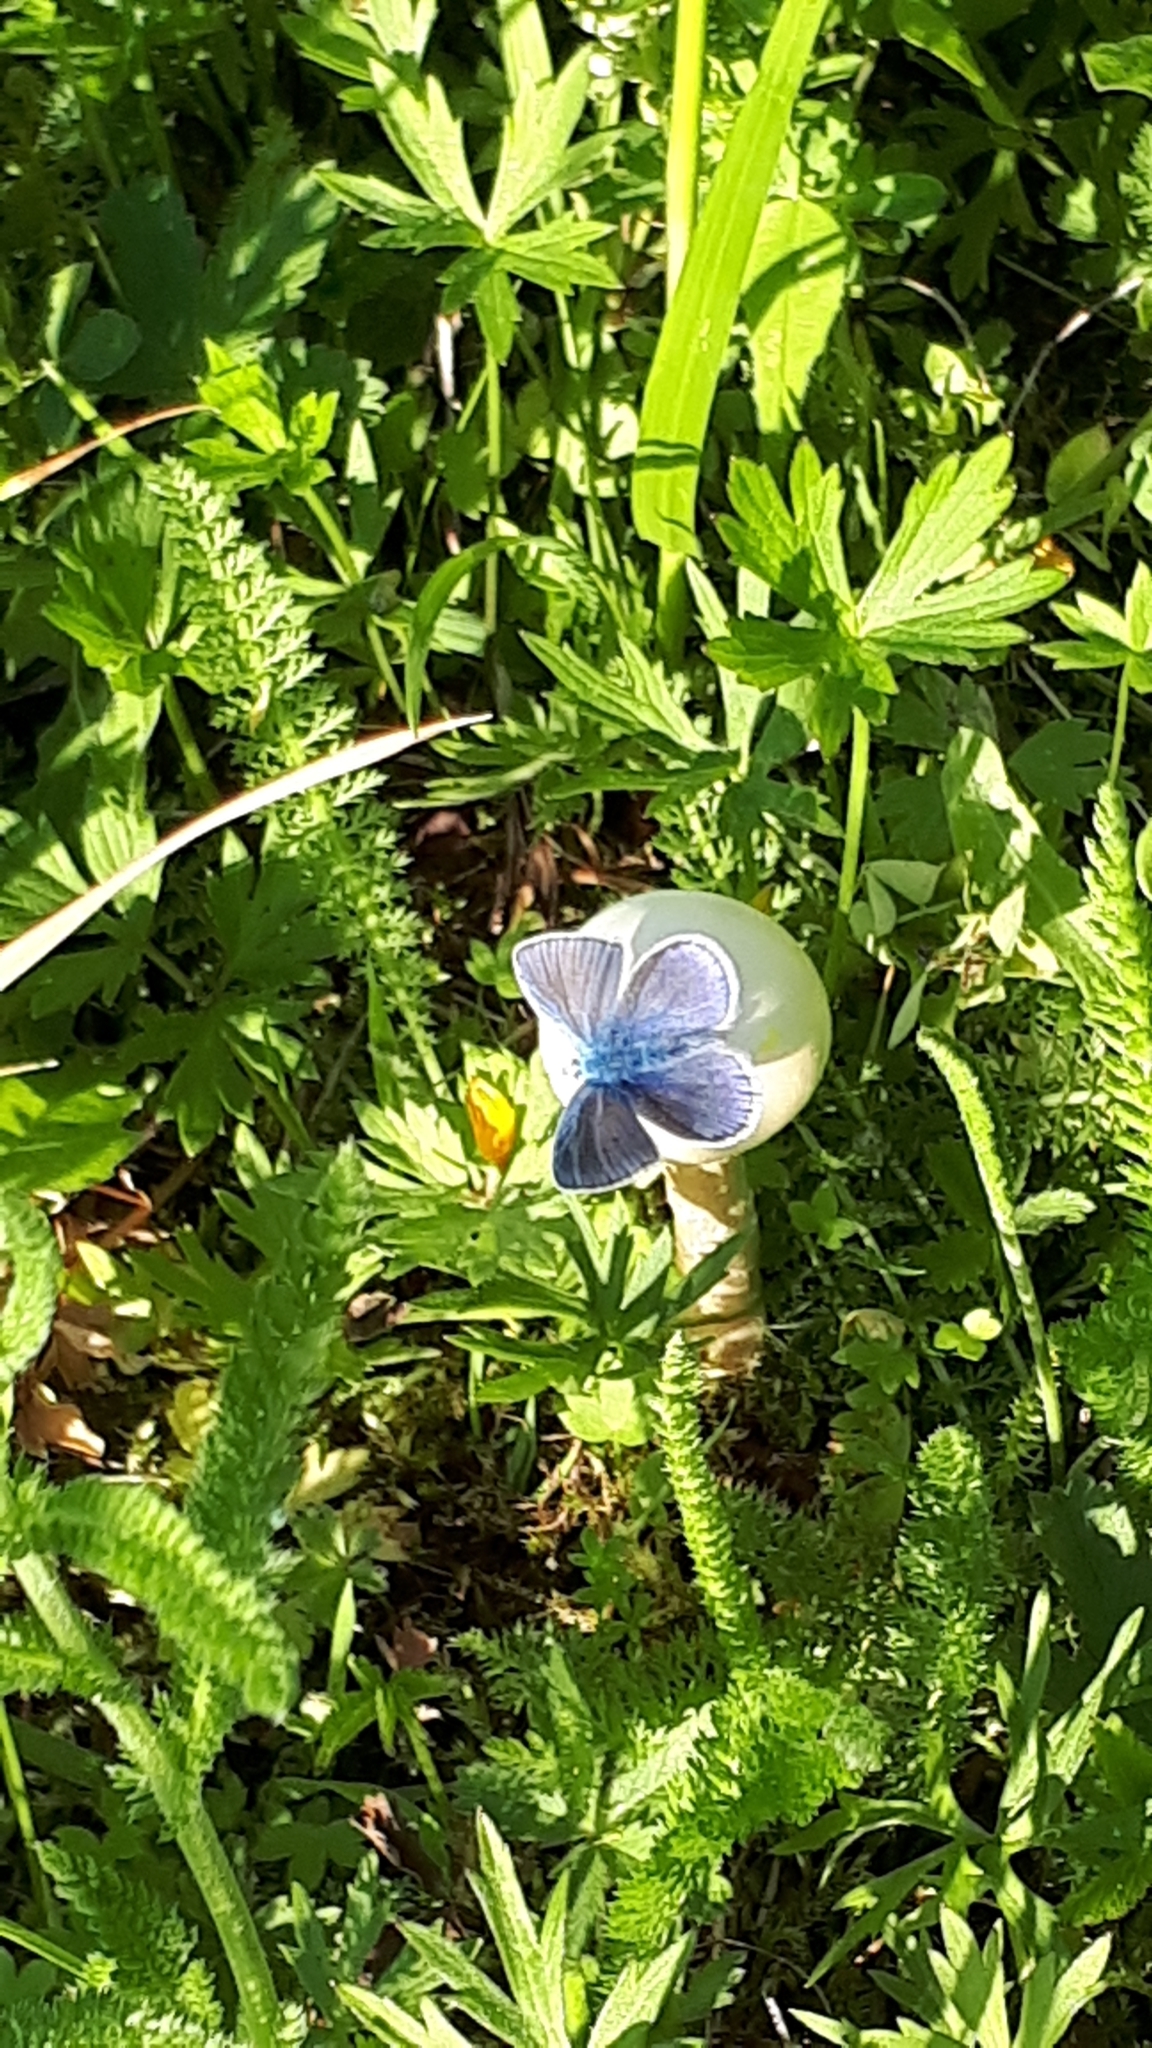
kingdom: Animalia
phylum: Arthropoda
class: Insecta
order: Lepidoptera
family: Lycaenidae
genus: Polyommatus
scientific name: Polyommatus icarus
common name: Common blue
